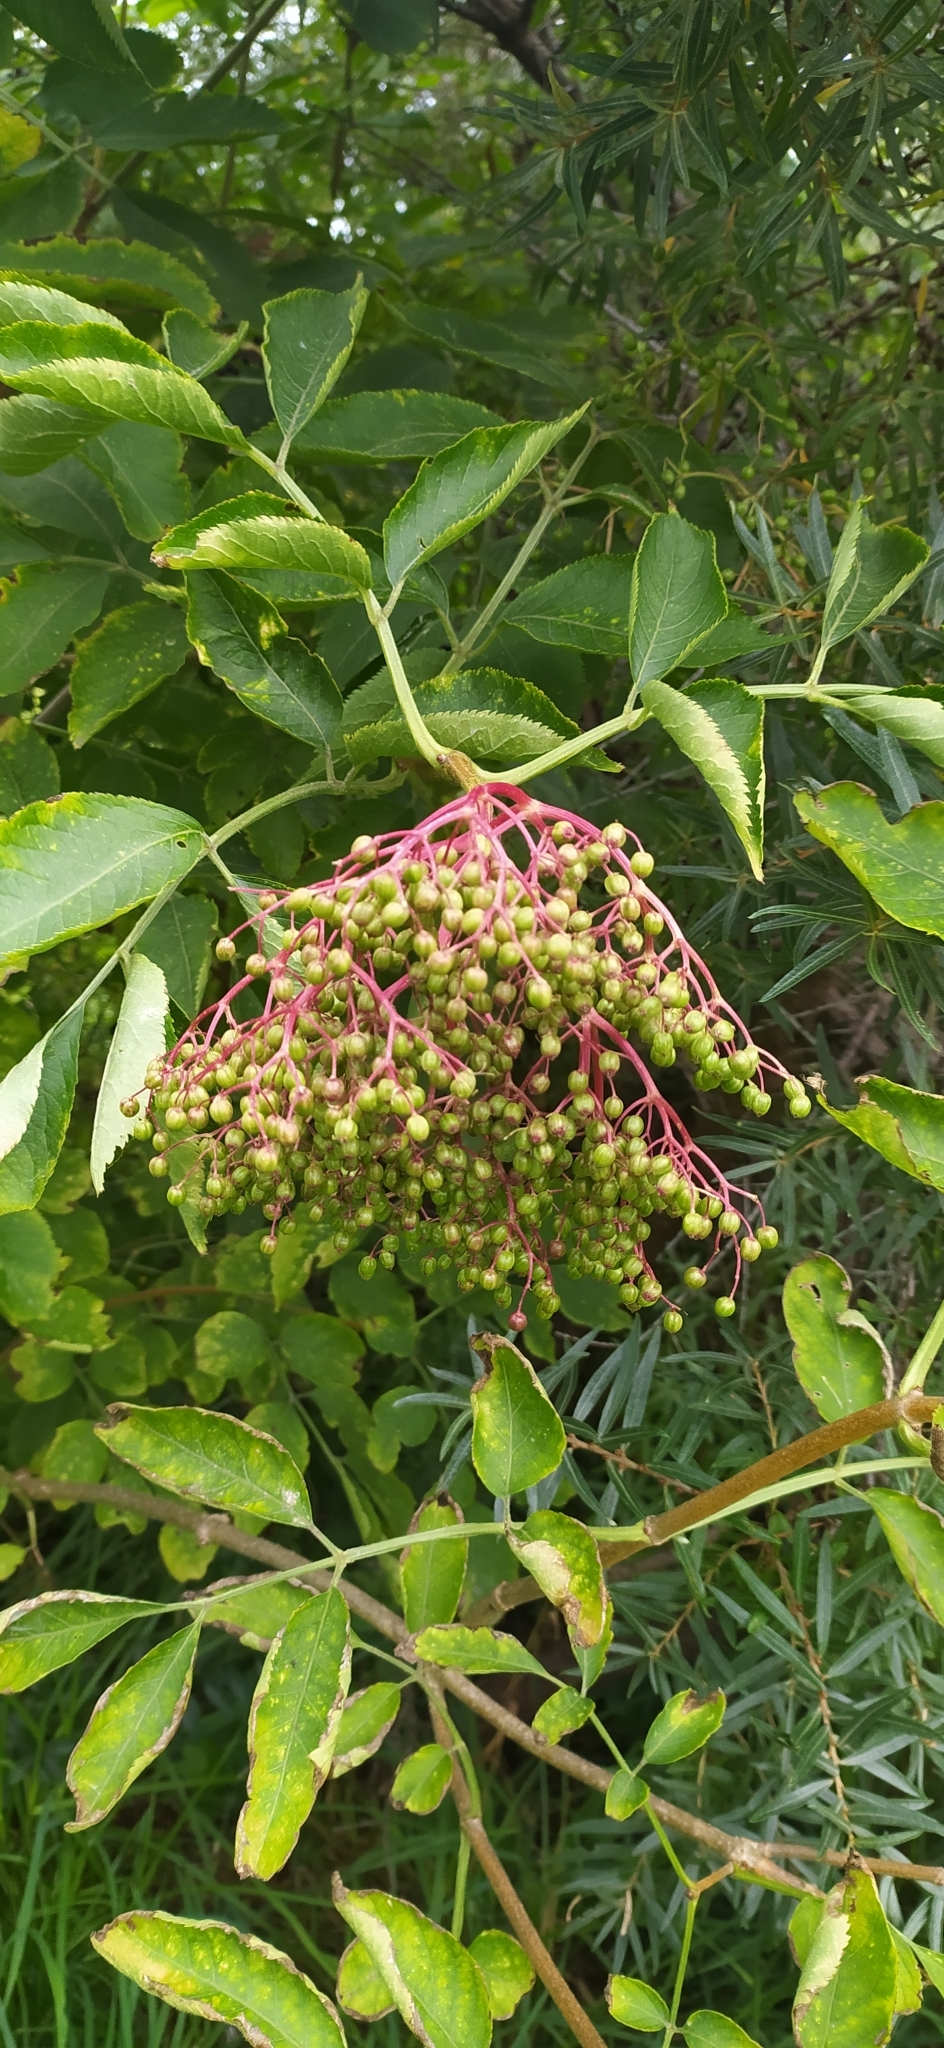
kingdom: Plantae
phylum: Tracheophyta
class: Magnoliopsida
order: Dipsacales
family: Viburnaceae
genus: Sambucus
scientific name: Sambucus nigra
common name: Elder
